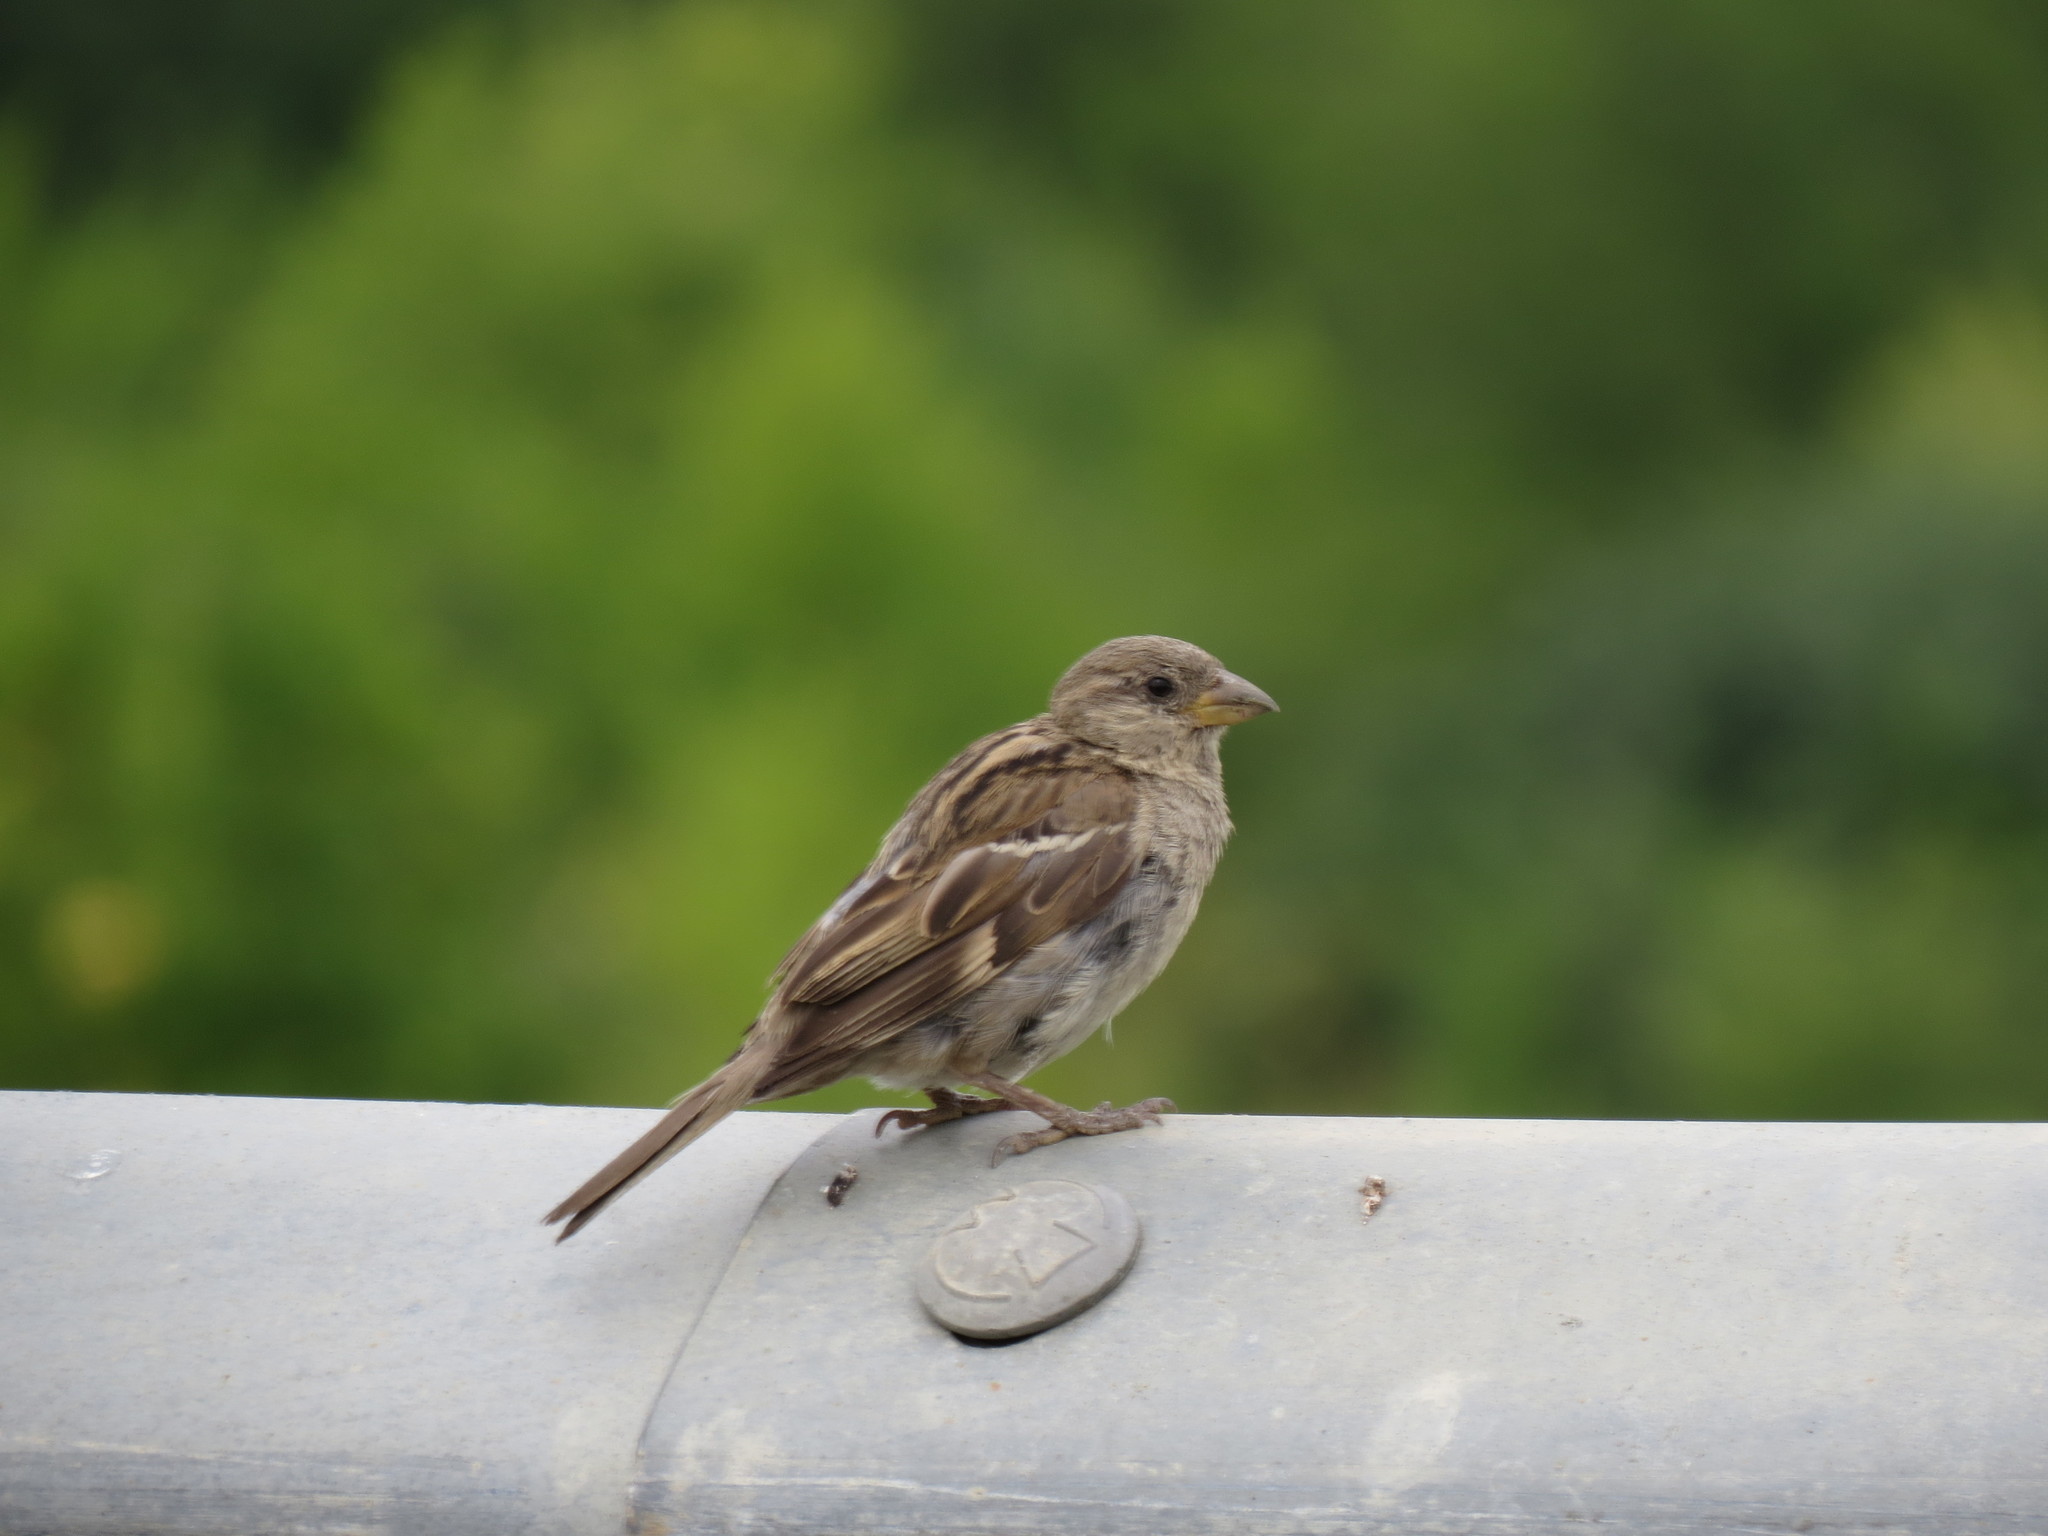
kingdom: Animalia
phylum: Chordata
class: Aves
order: Passeriformes
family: Passeridae
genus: Passer
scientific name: Passer domesticus
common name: House sparrow
